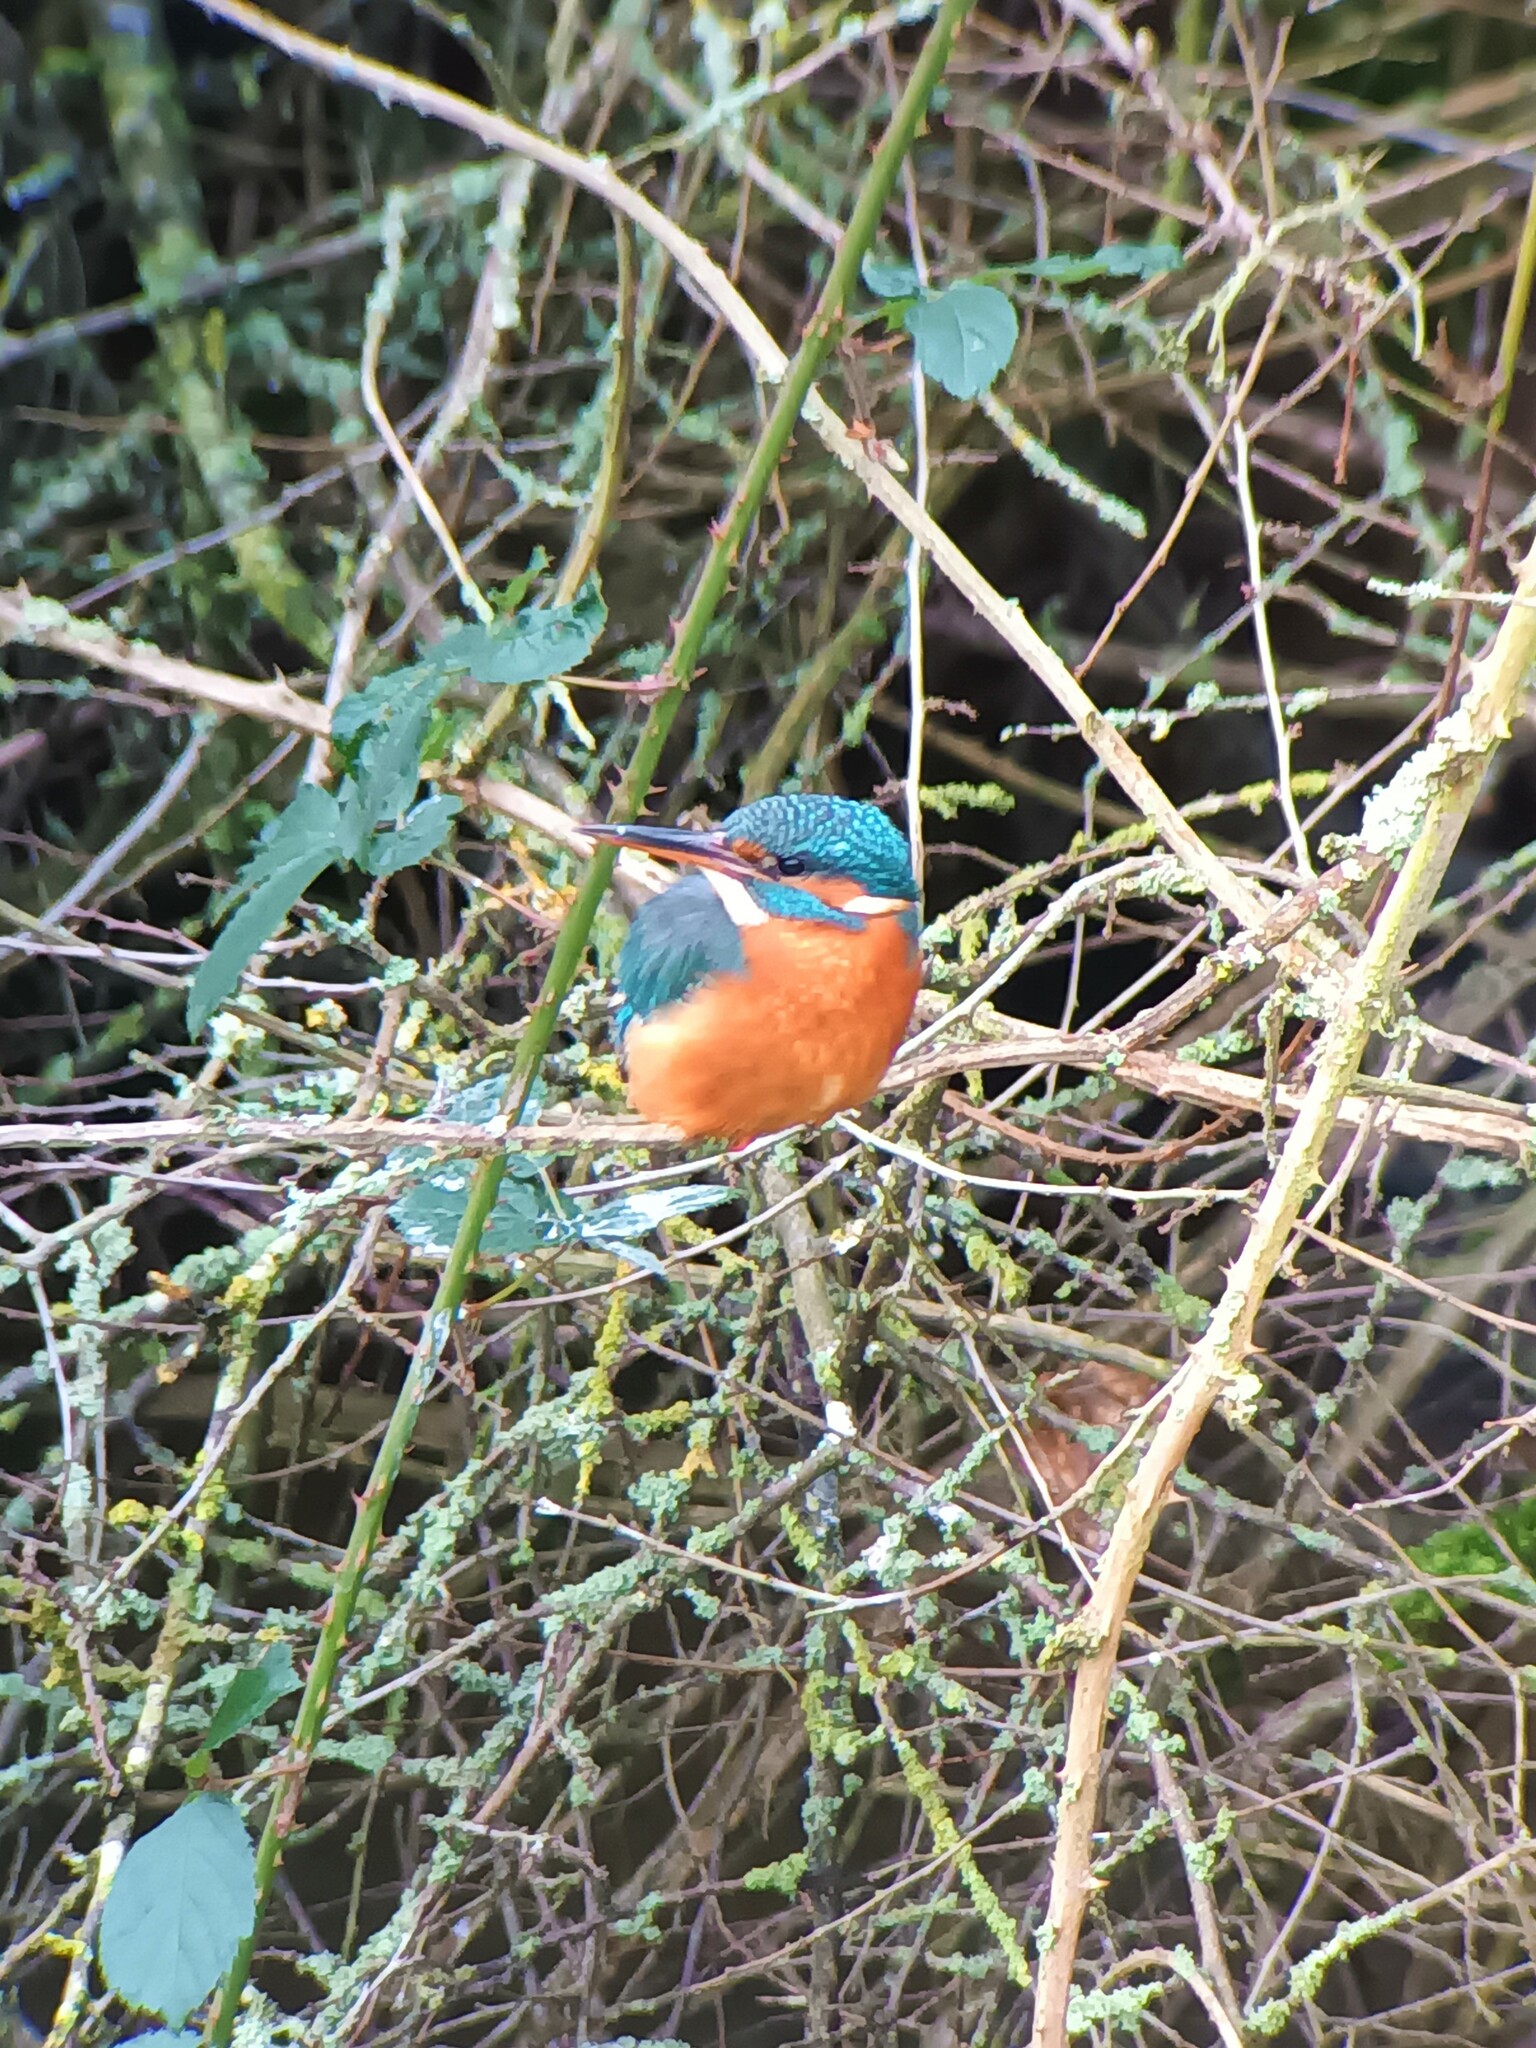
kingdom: Animalia
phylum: Chordata
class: Aves
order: Coraciiformes
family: Alcedinidae
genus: Alcedo
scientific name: Alcedo atthis
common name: Common kingfisher
